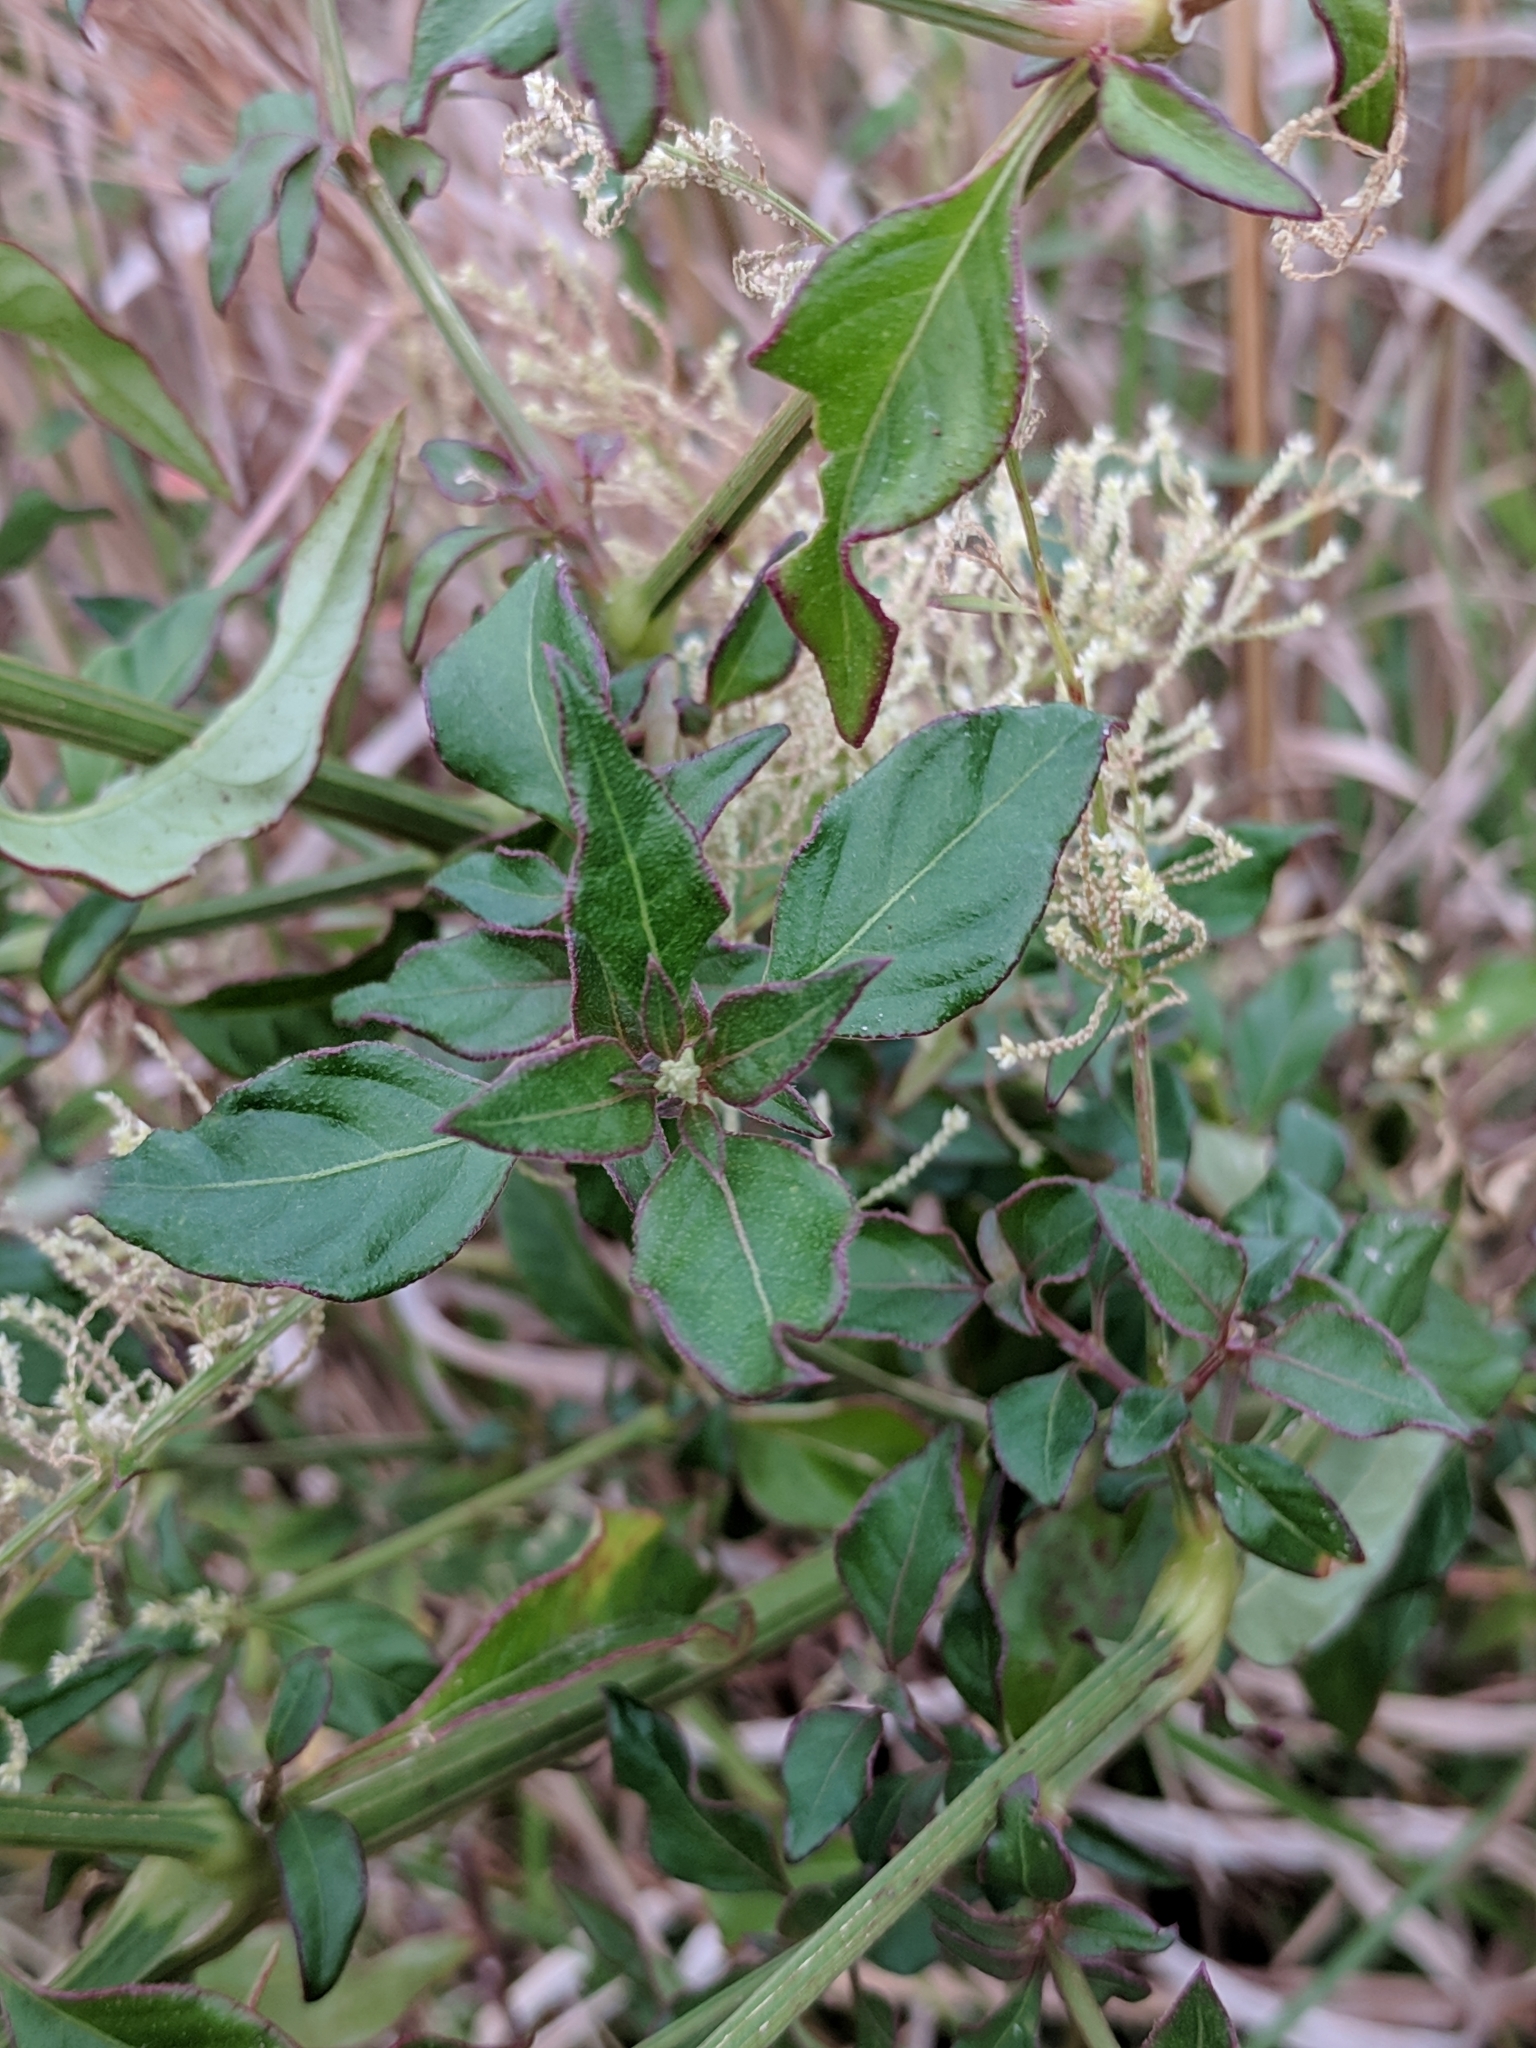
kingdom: Plantae
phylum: Tracheophyta
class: Magnoliopsida
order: Caryophyllales
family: Amaranthaceae
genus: Iresine
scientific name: Iresine diffusa
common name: Juba's-bush
